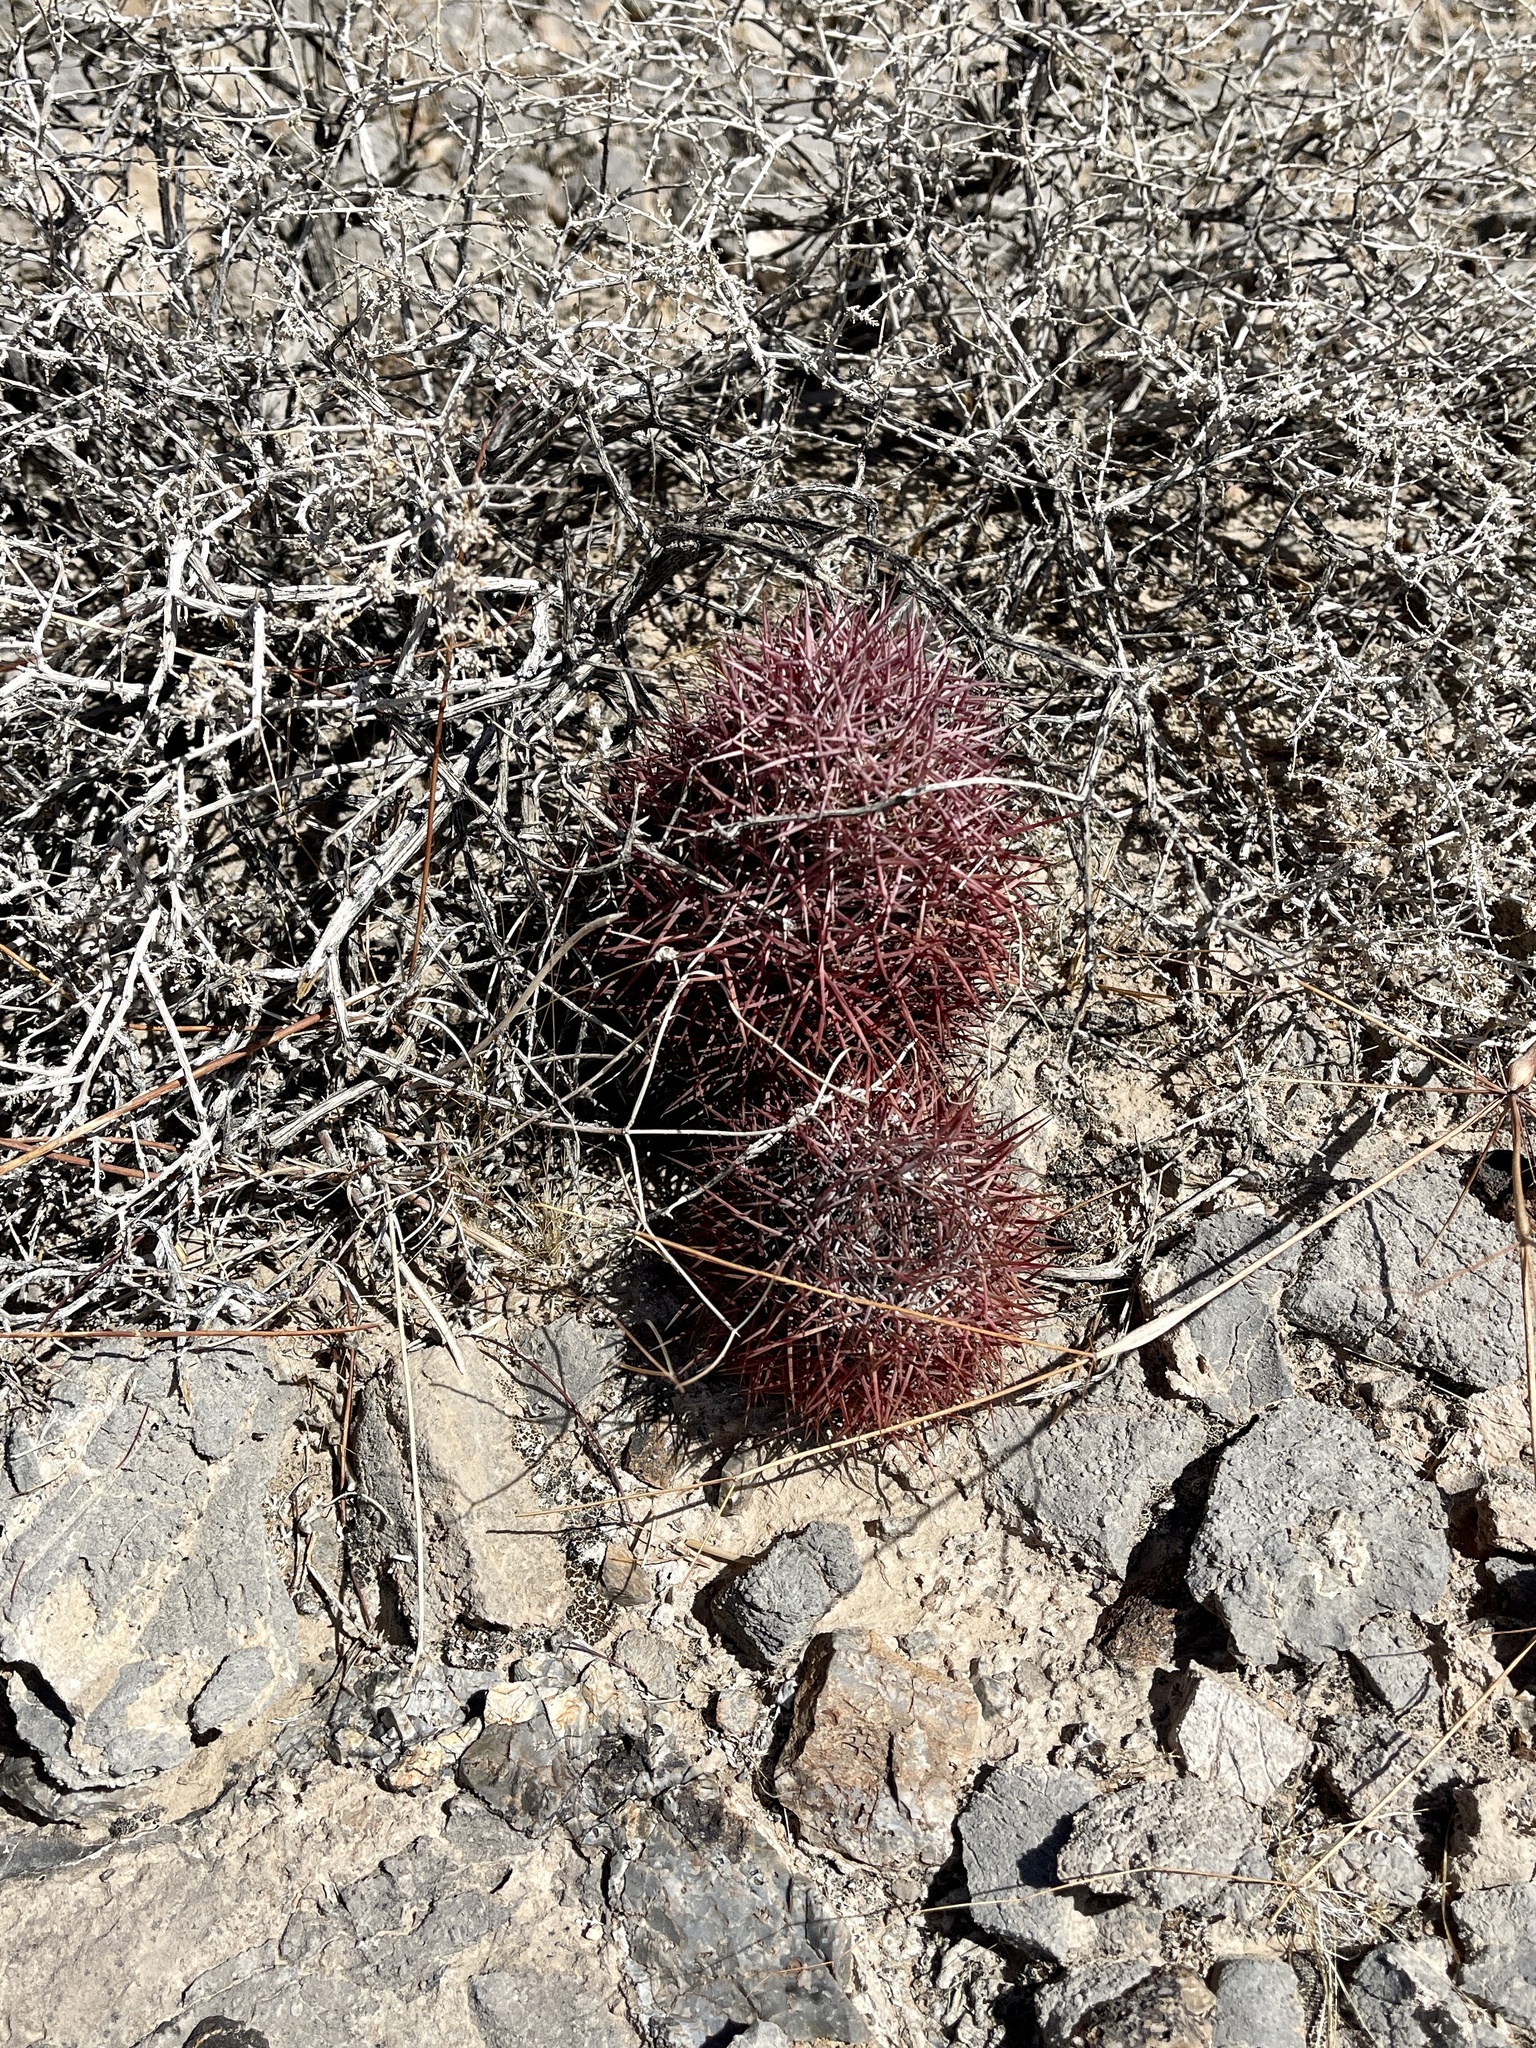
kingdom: Plantae
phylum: Tracheophyta
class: Magnoliopsida
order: Caryophyllales
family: Cactaceae
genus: Sclerocactus
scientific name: Sclerocactus johnsonii
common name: Eight-spine fishhook cactus
